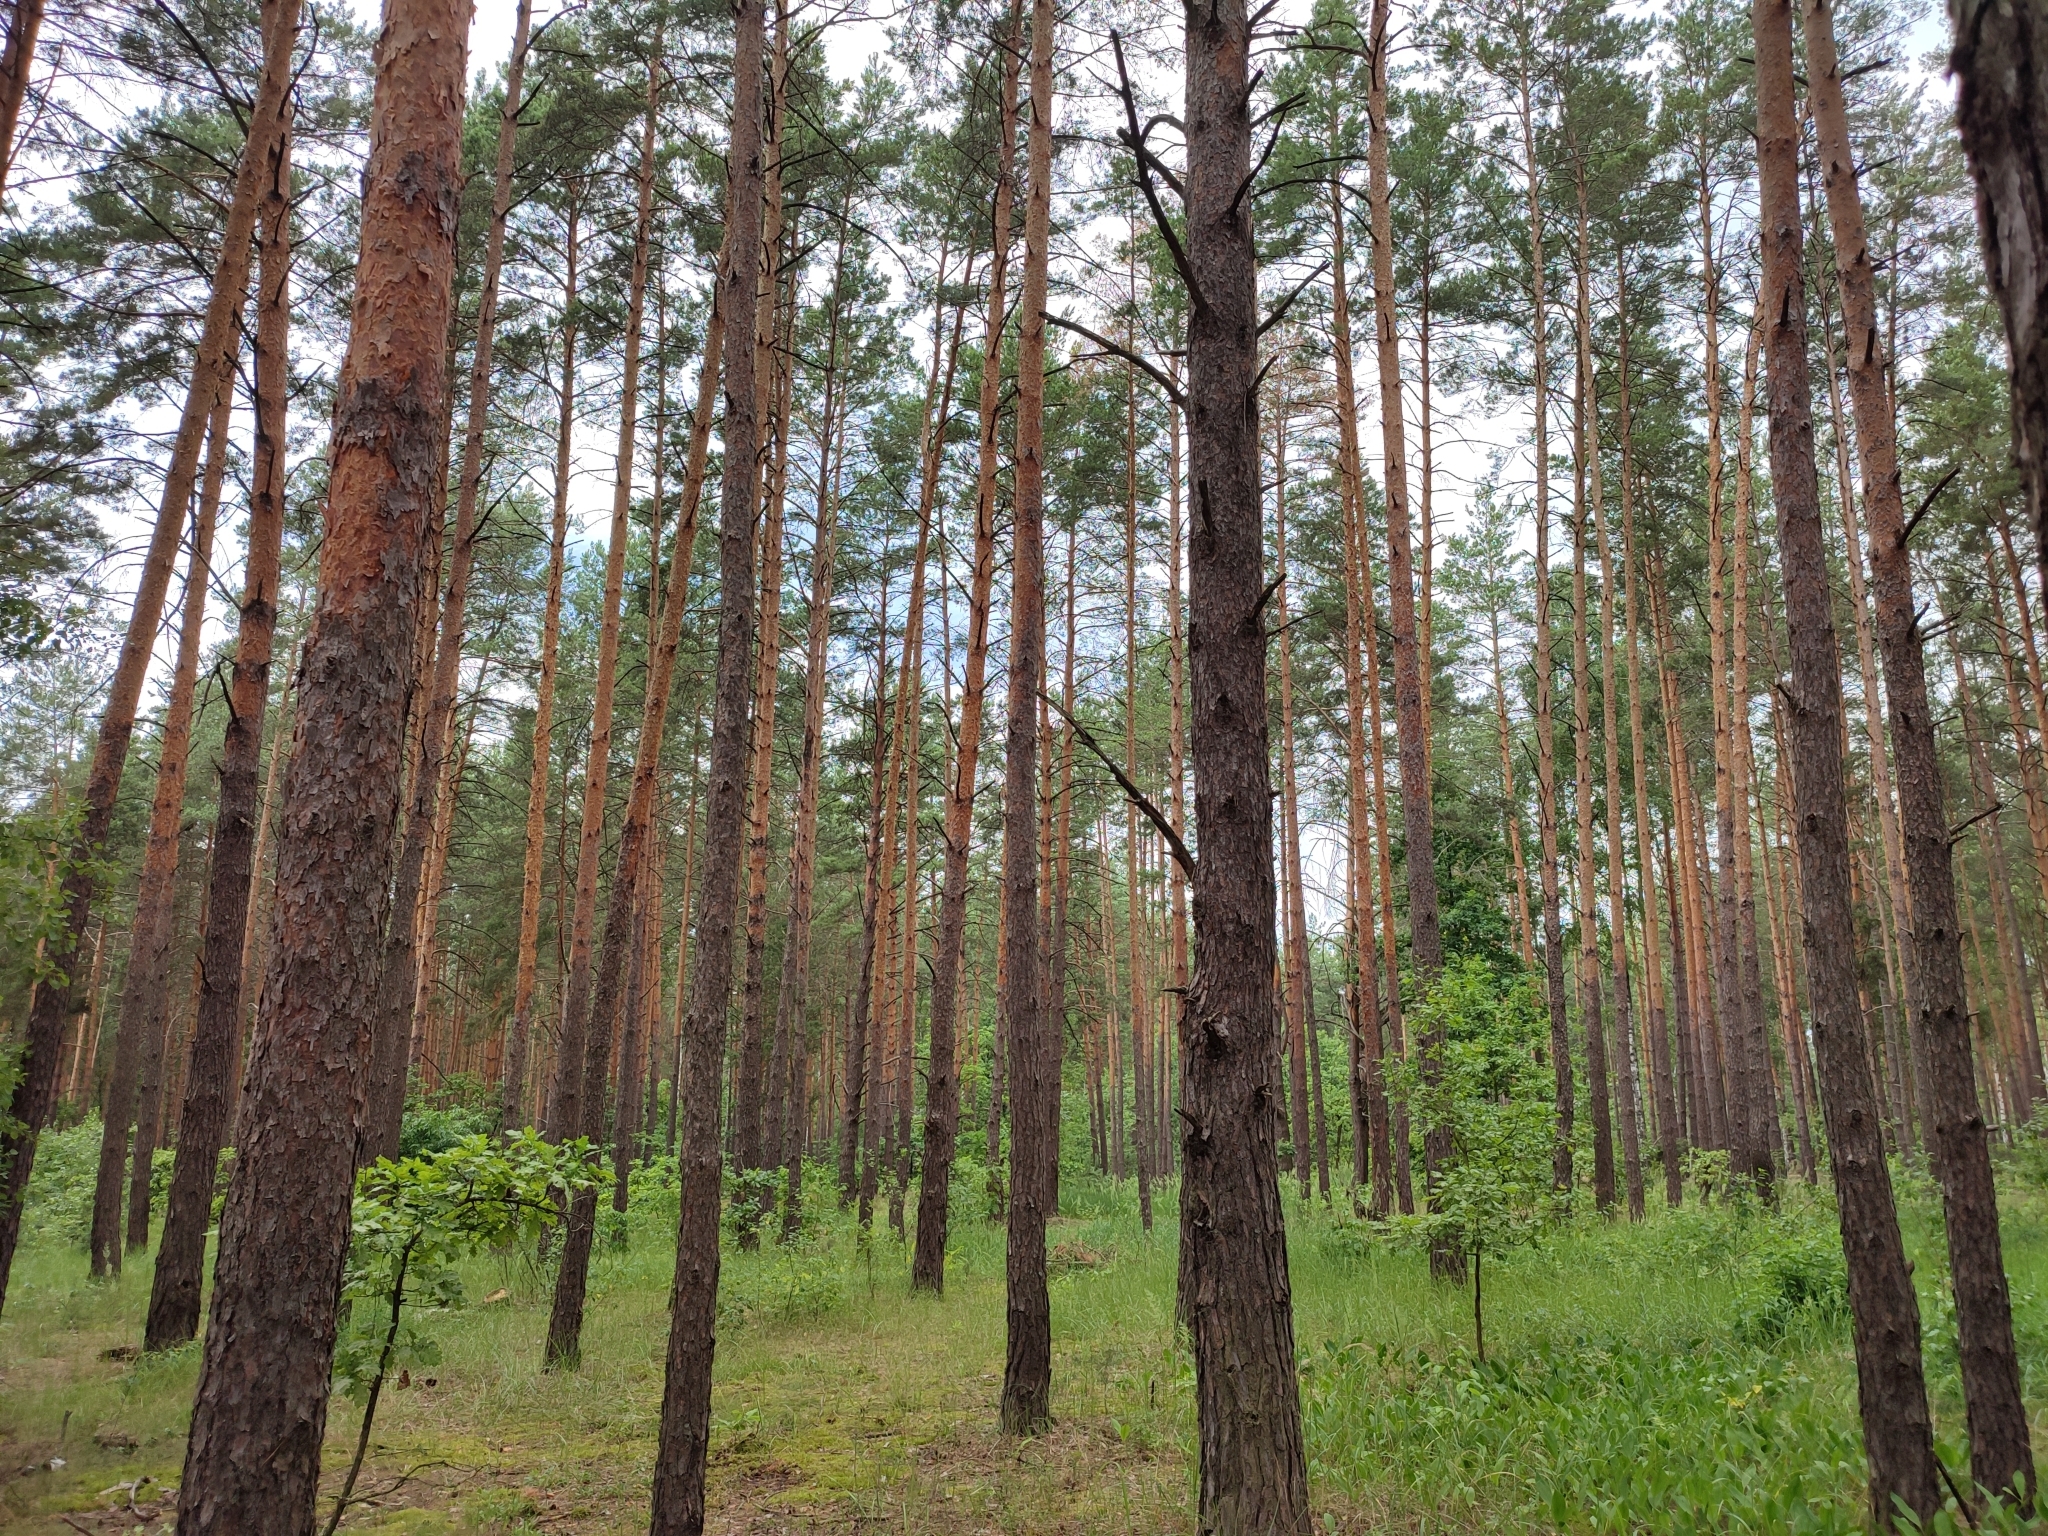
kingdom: Plantae
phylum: Tracheophyta
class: Pinopsida
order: Pinales
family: Pinaceae
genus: Pinus
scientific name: Pinus sylvestris
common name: Scots pine
